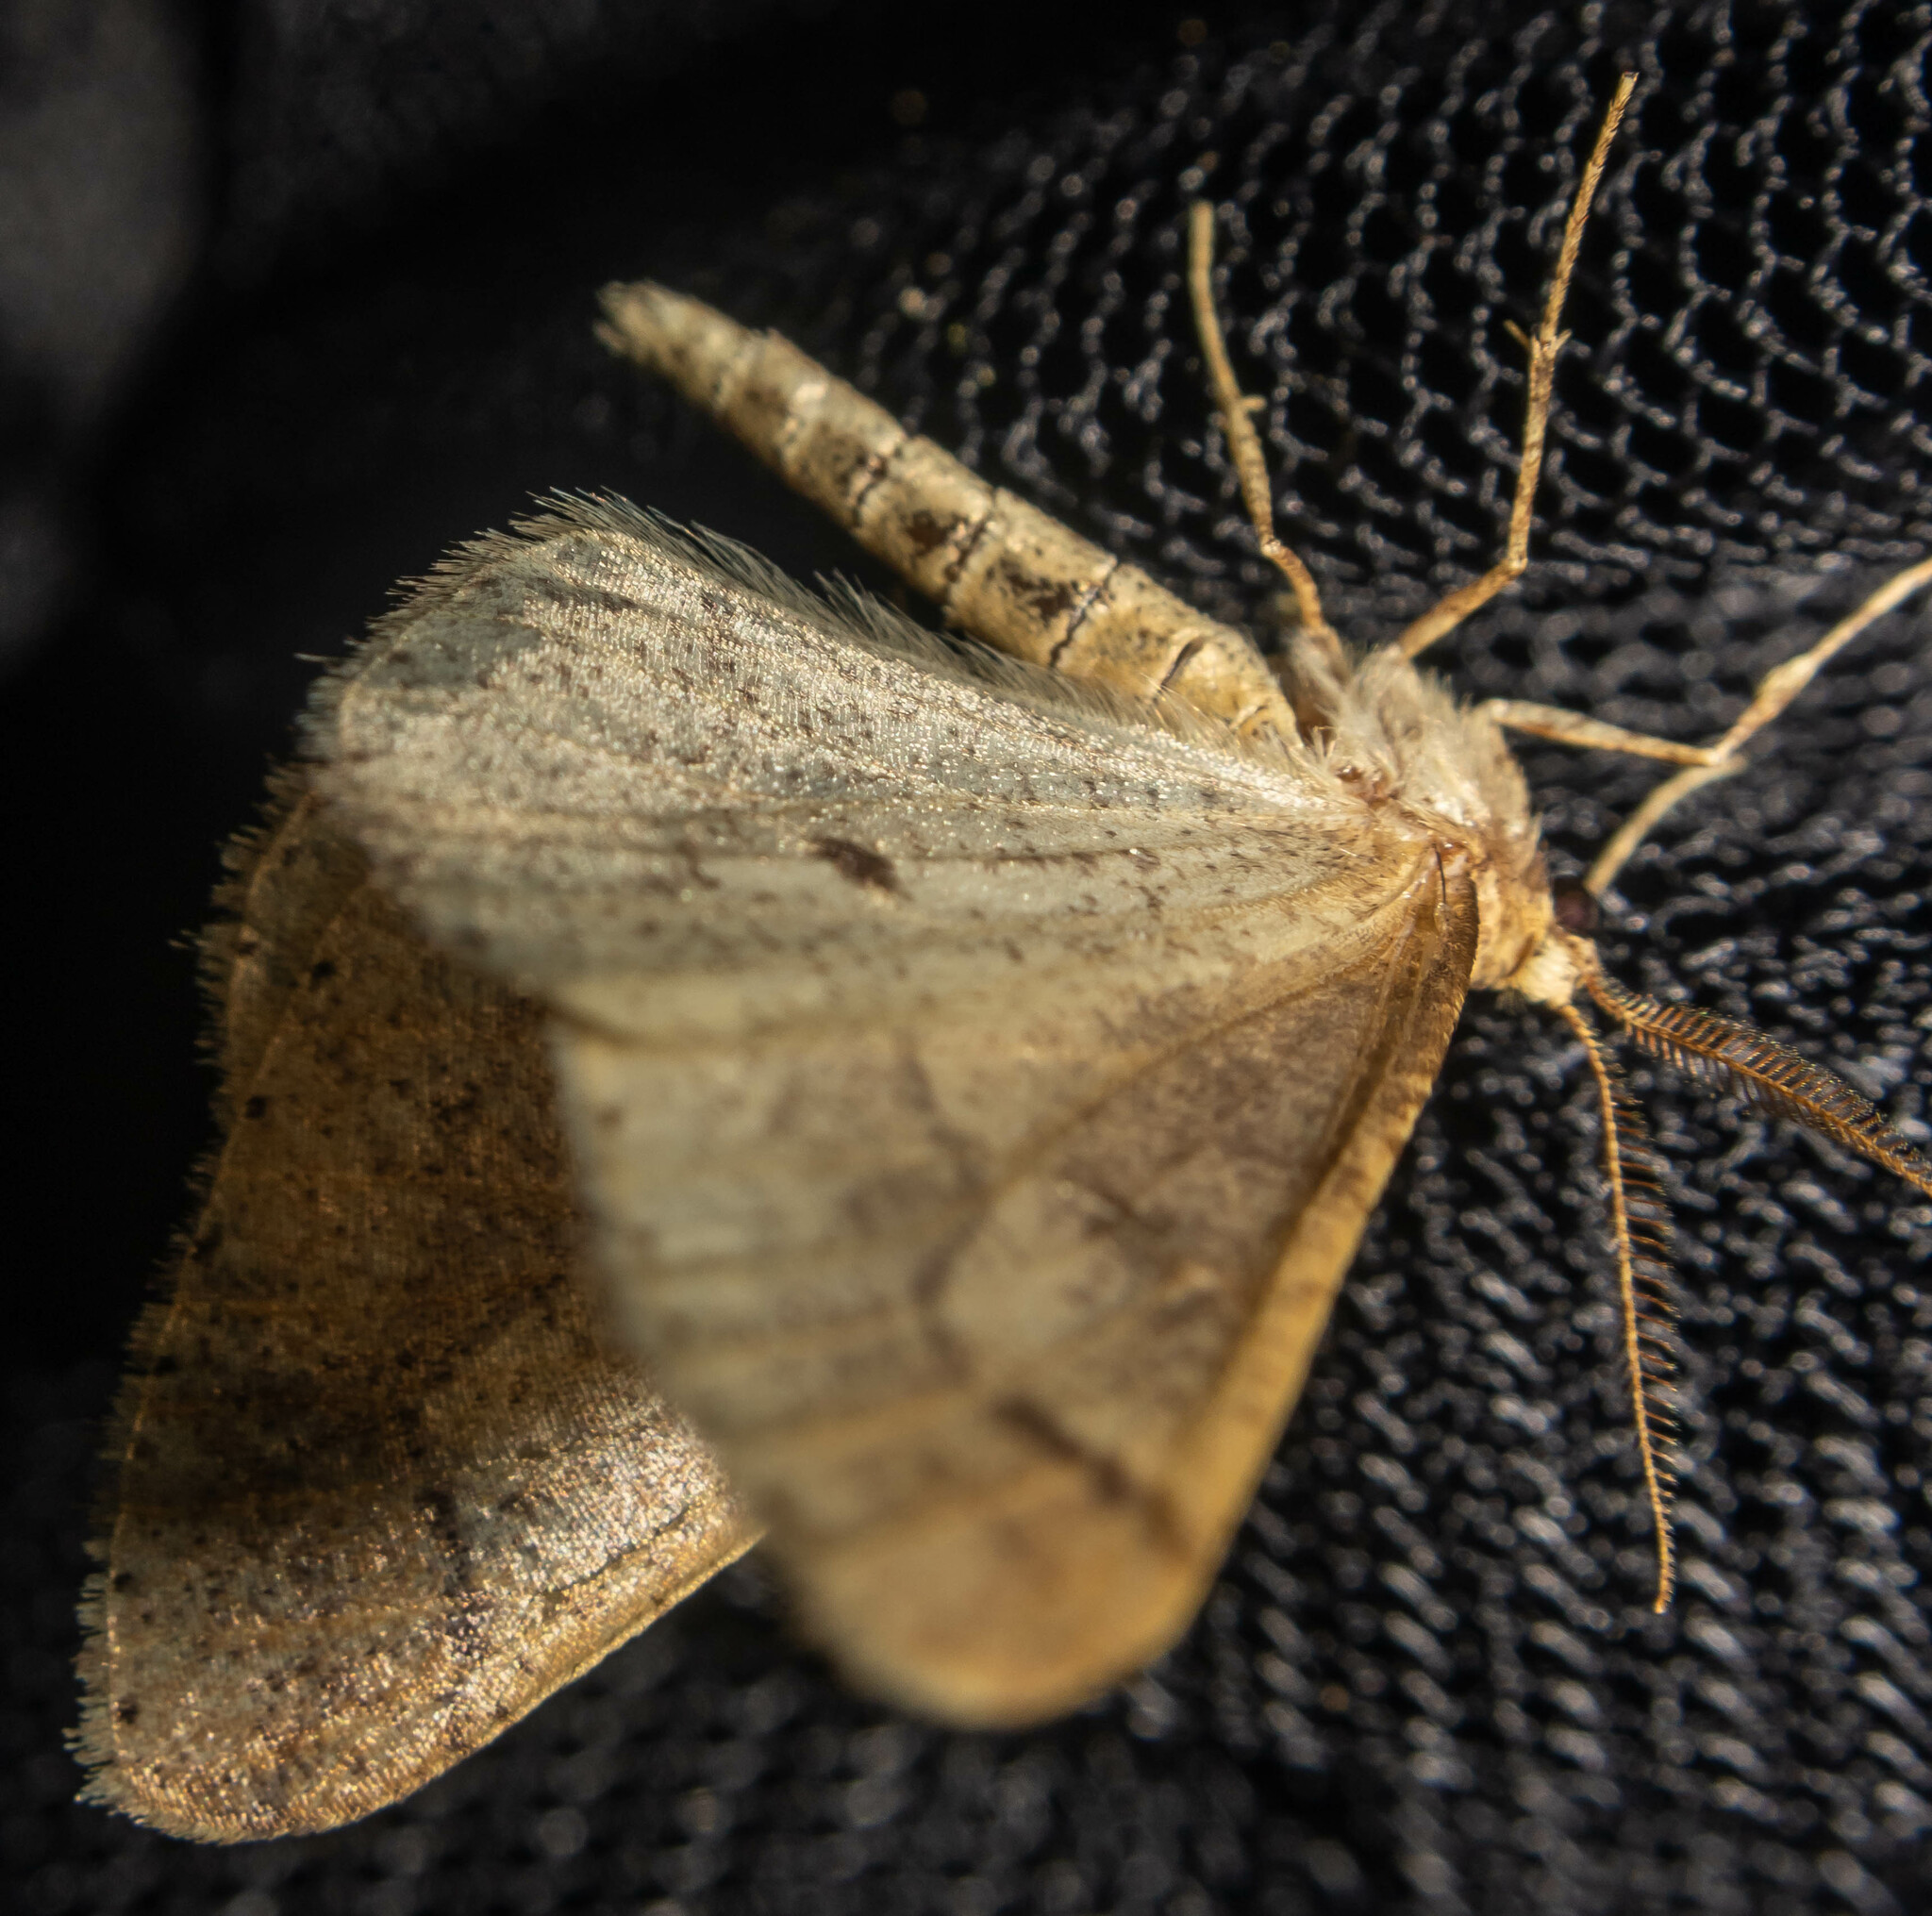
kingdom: Animalia
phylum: Arthropoda
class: Insecta
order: Lepidoptera
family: Geometridae
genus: Agriopis
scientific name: Agriopis marginaria
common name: Dotted border
